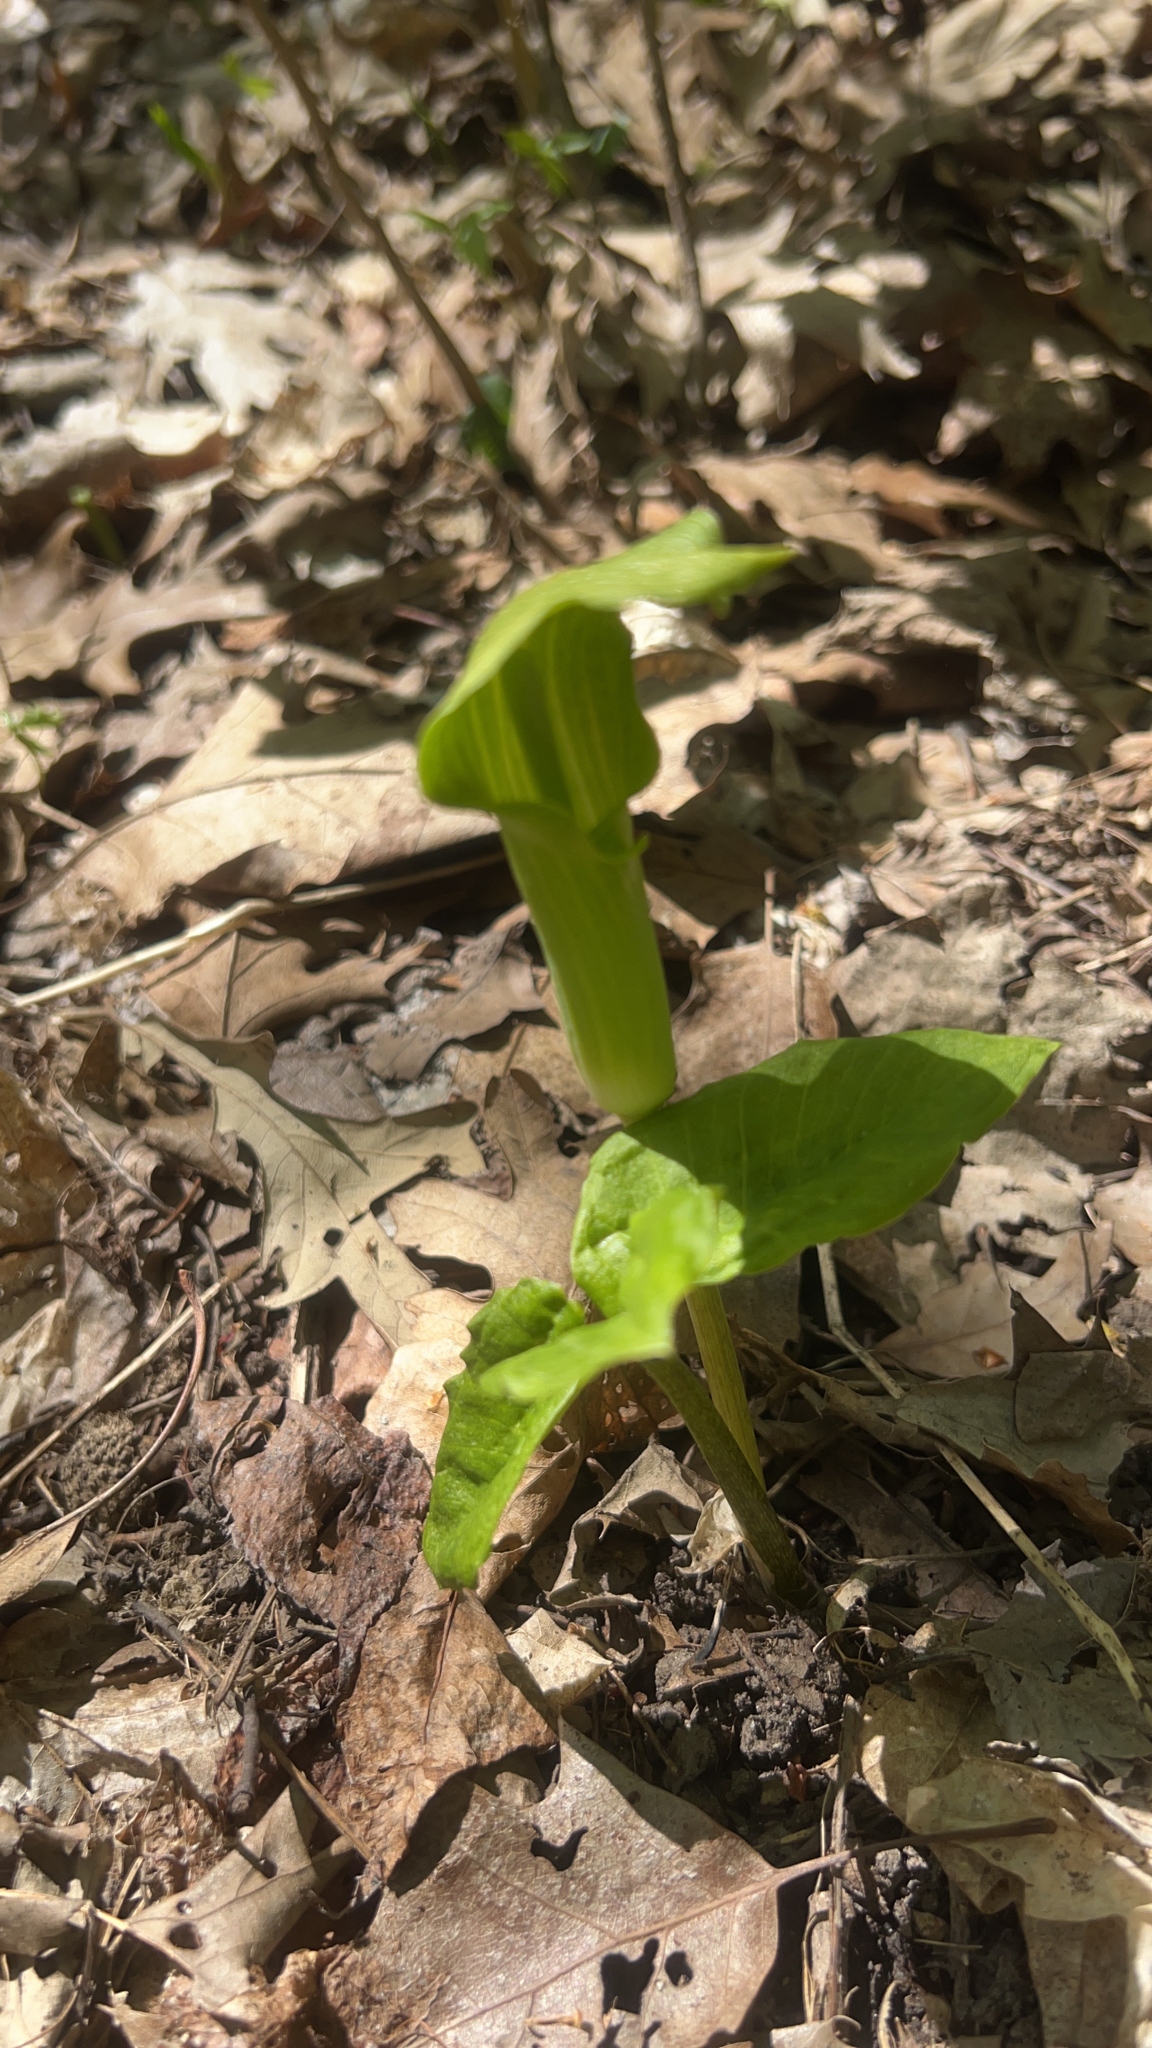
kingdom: Plantae
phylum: Tracheophyta
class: Liliopsida
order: Alismatales
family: Araceae
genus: Arisaema
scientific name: Arisaema triphyllum
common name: Jack-in-the-pulpit
